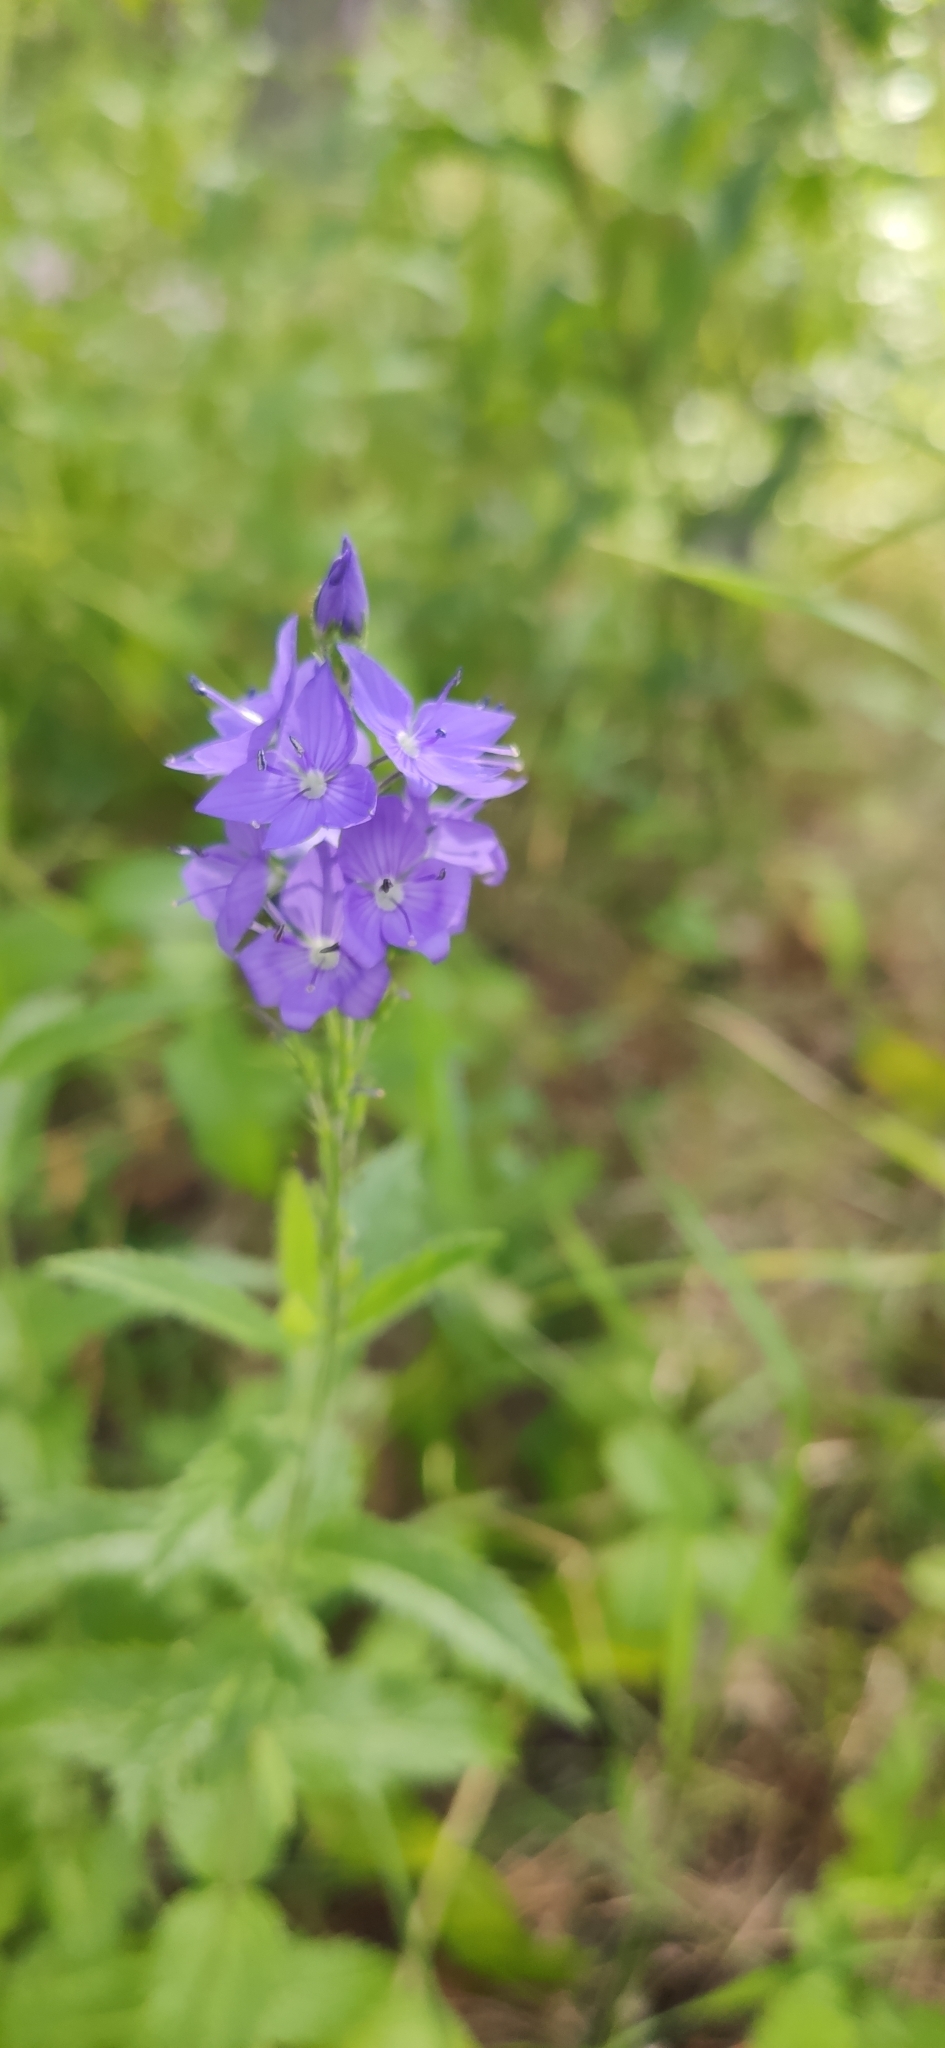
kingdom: Plantae
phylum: Tracheophyta
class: Magnoliopsida
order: Lamiales
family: Plantaginaceae
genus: Veronica
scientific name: Veronica teucrium
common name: Large speedwell
